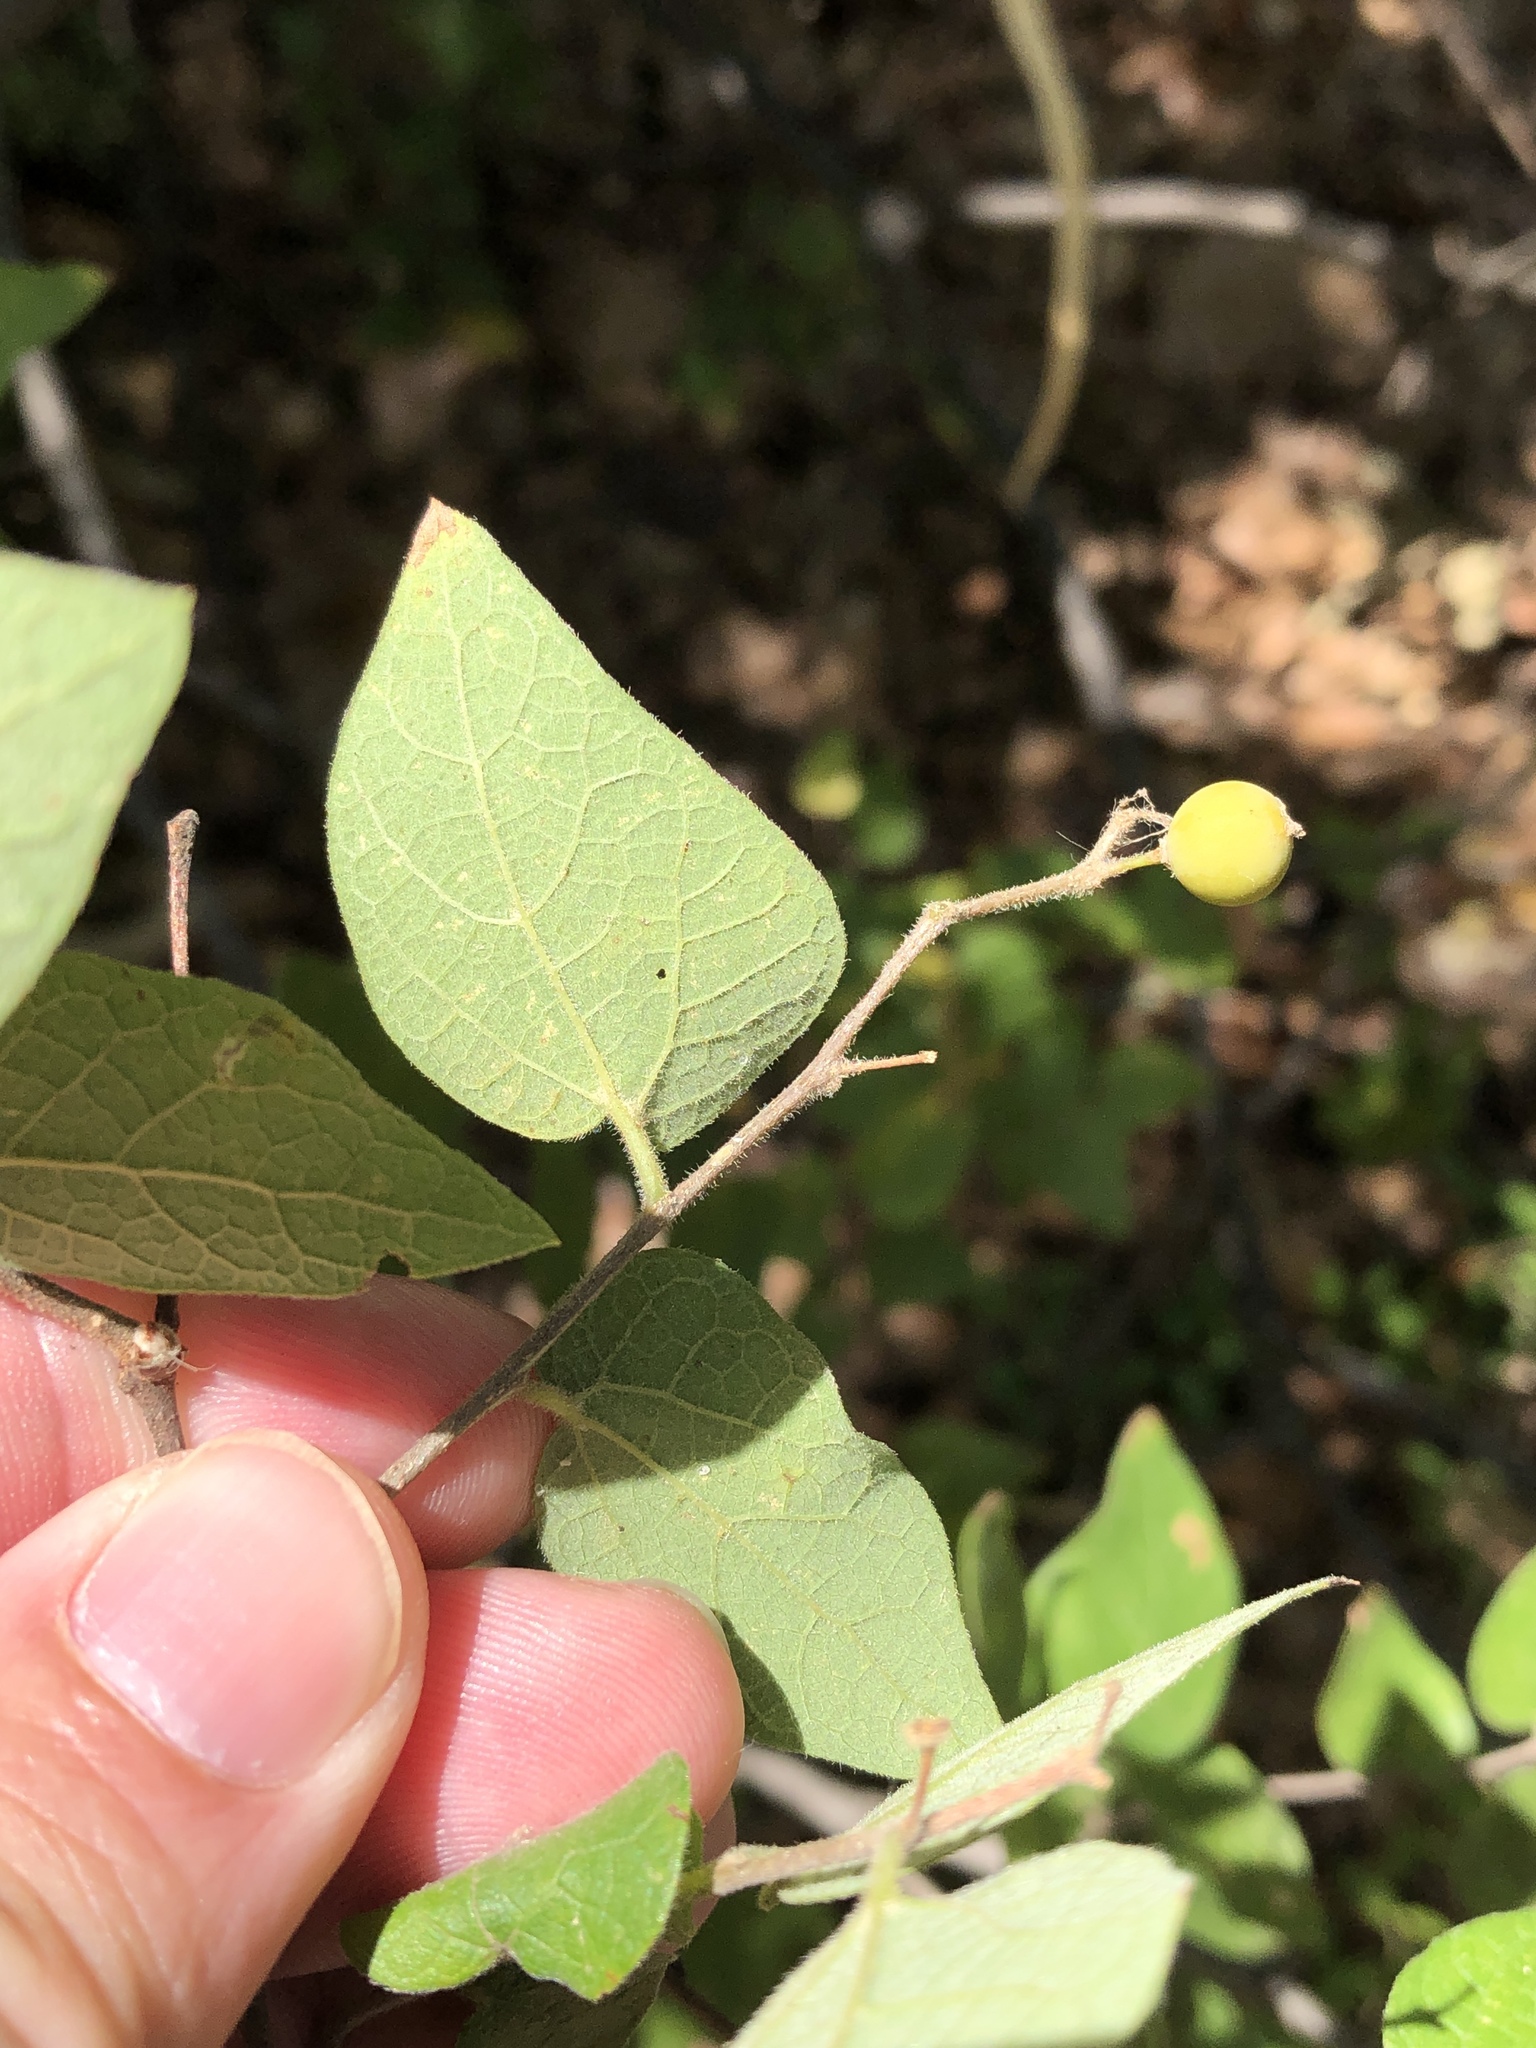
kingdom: Plantae
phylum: Tracheophyta
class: Magnoliopsida
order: Rosales
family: Cannabaceae
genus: Celtis
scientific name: Celtis reticulata
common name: Netleaf hackberry
